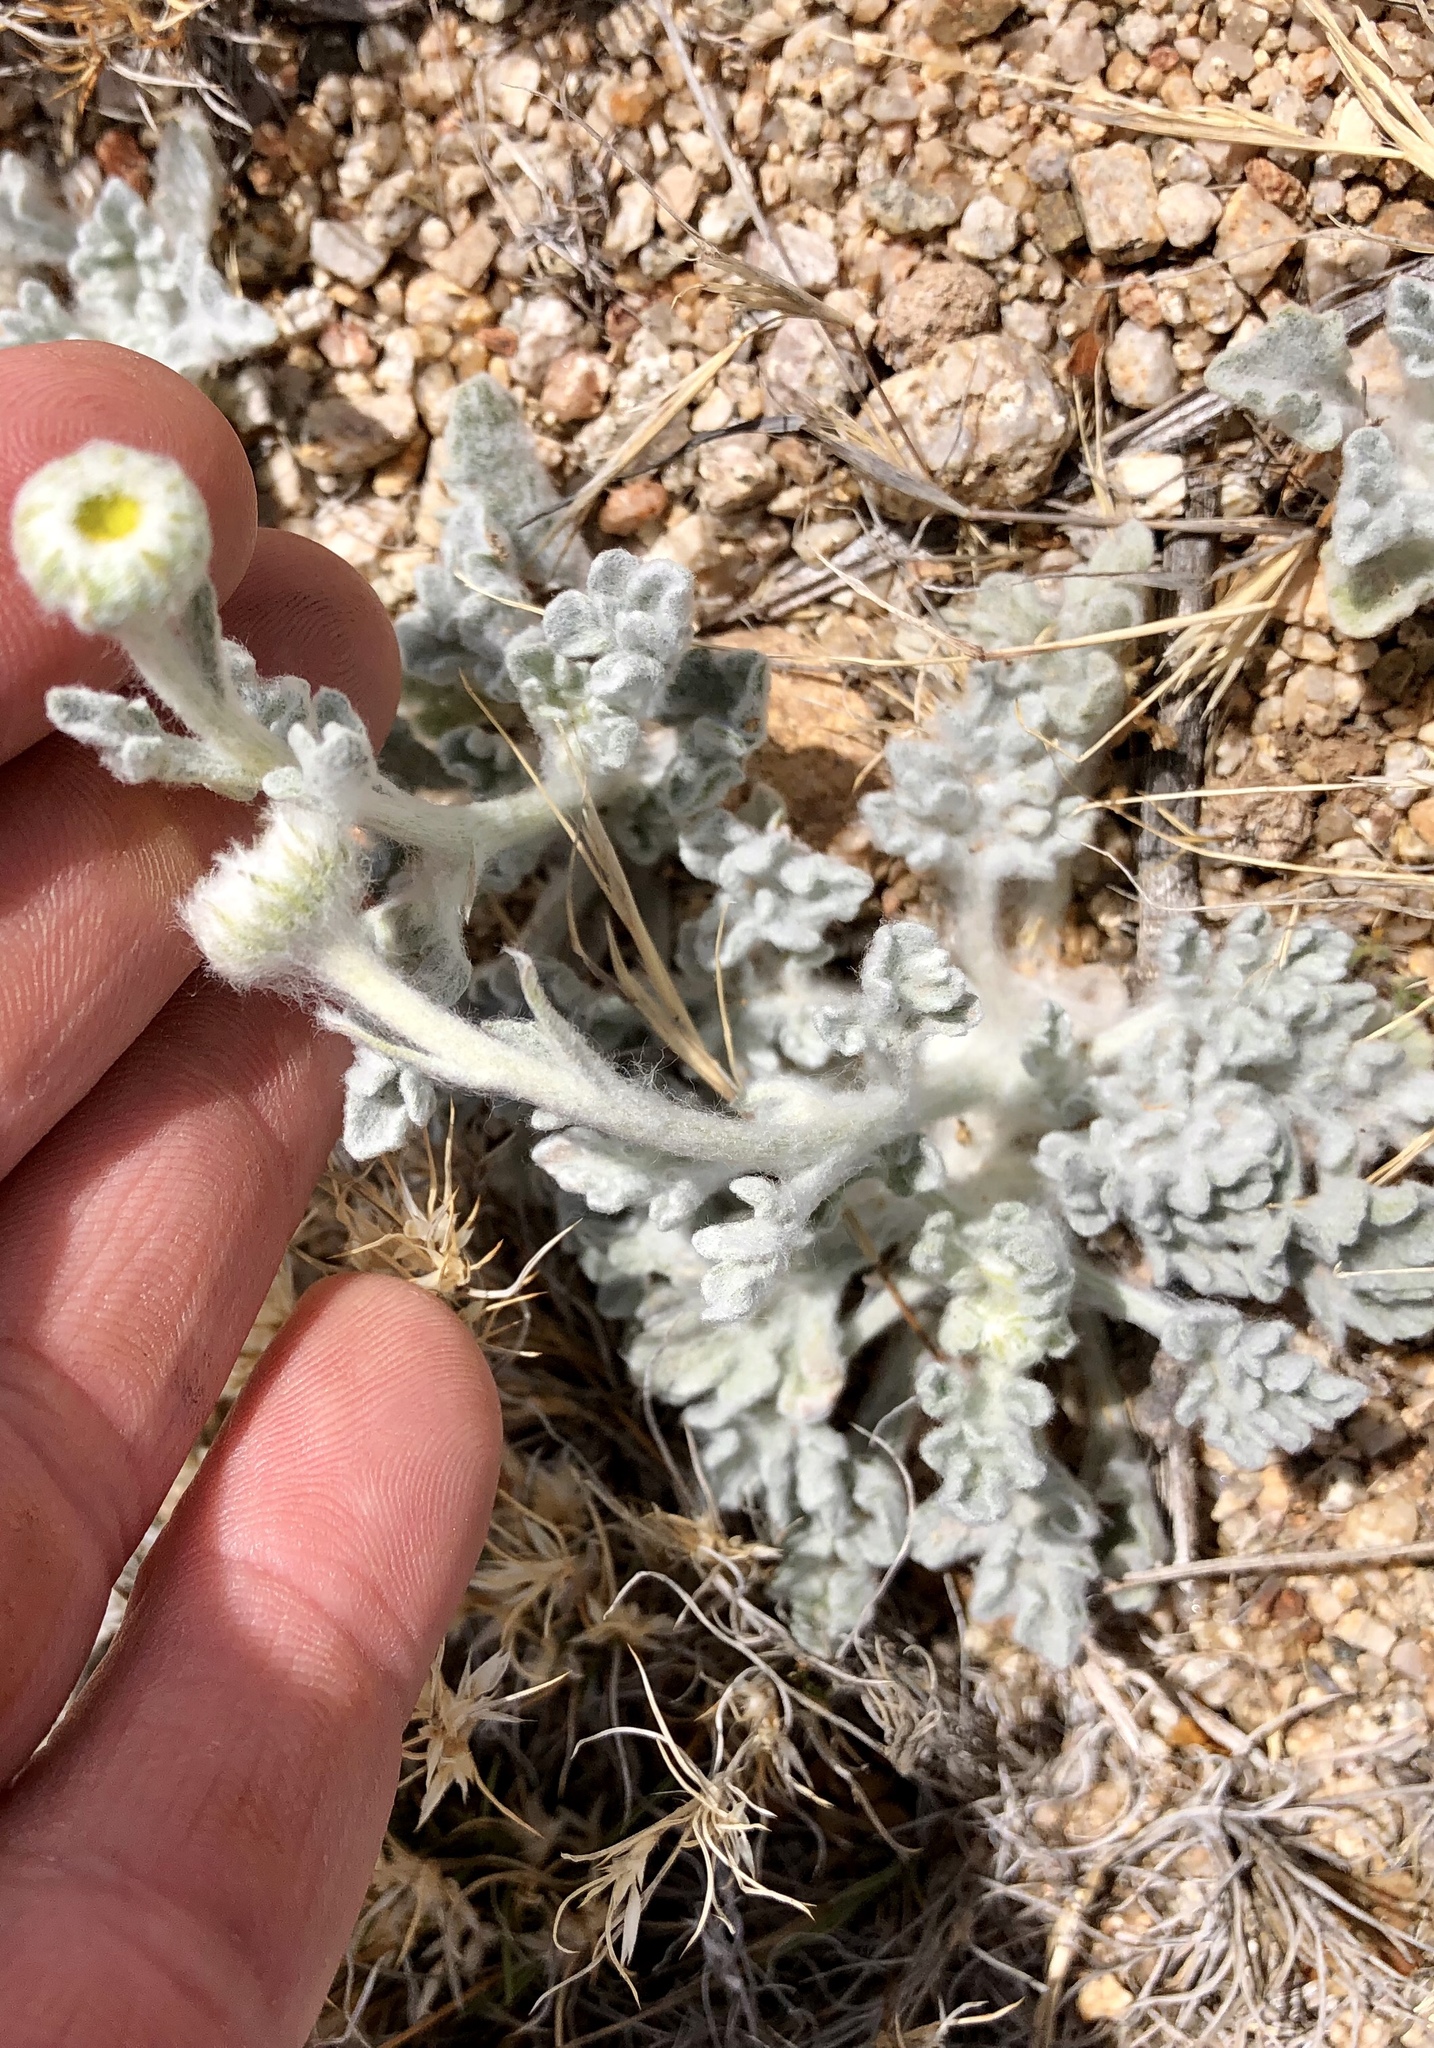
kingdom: Plantae
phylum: Tracheophyta
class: Magnoliopsida
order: Asterales
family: Asteraceae
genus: Baileya
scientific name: Baileya multiradiata
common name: Desert-marigold
